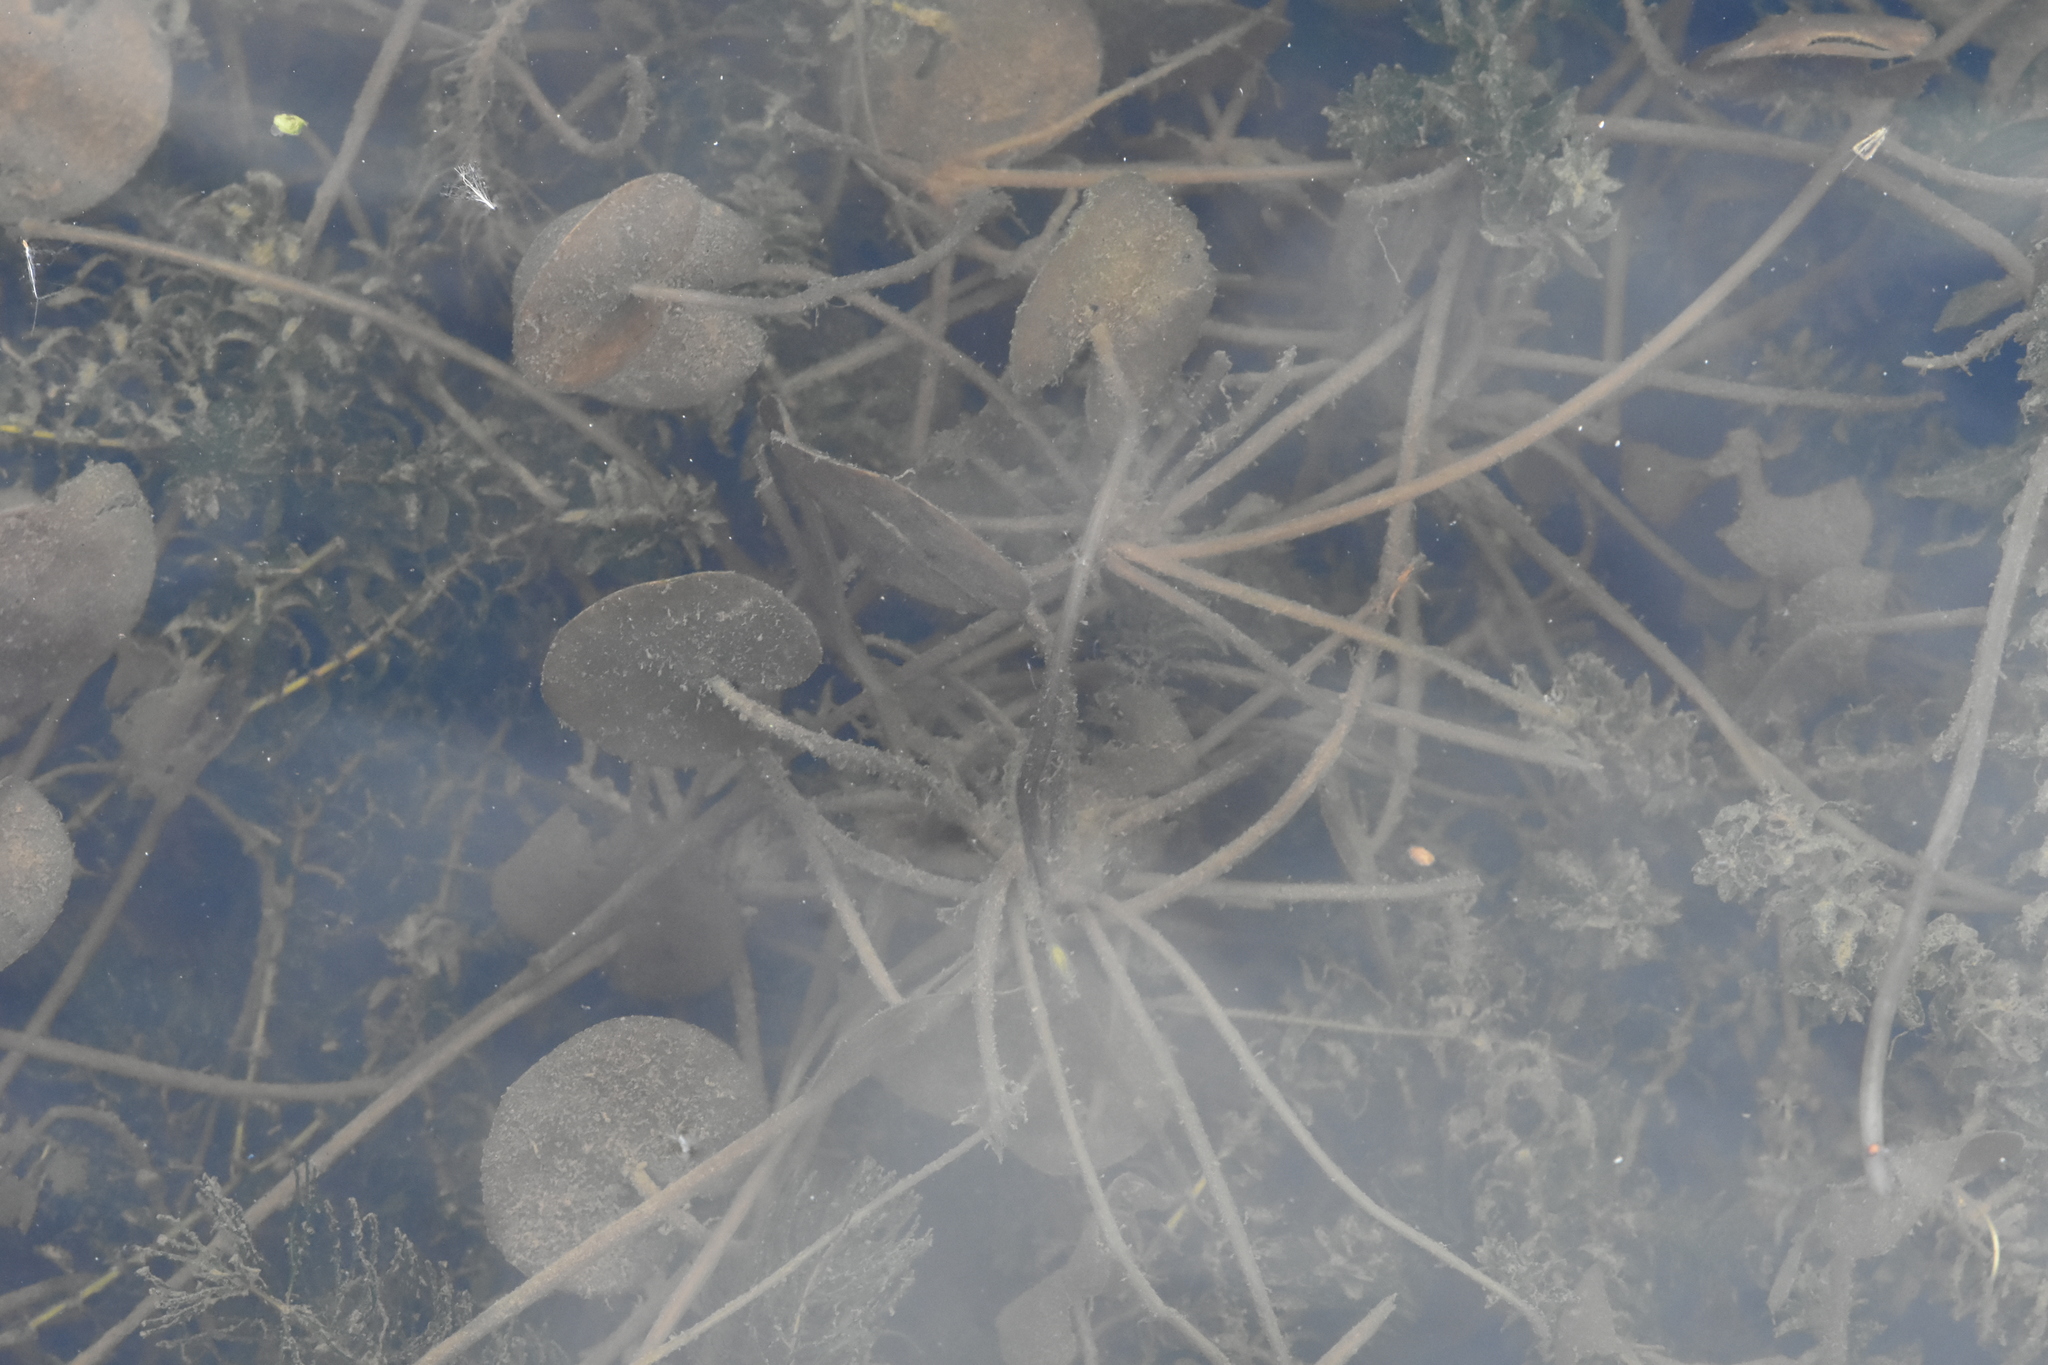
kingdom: Plantae
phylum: Tracheophyta
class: Liliopsida
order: Alismatales
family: Hydrocharitaceae
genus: Hydrocharis
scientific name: Hydrocharis morsus-ranae
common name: Frogbit
